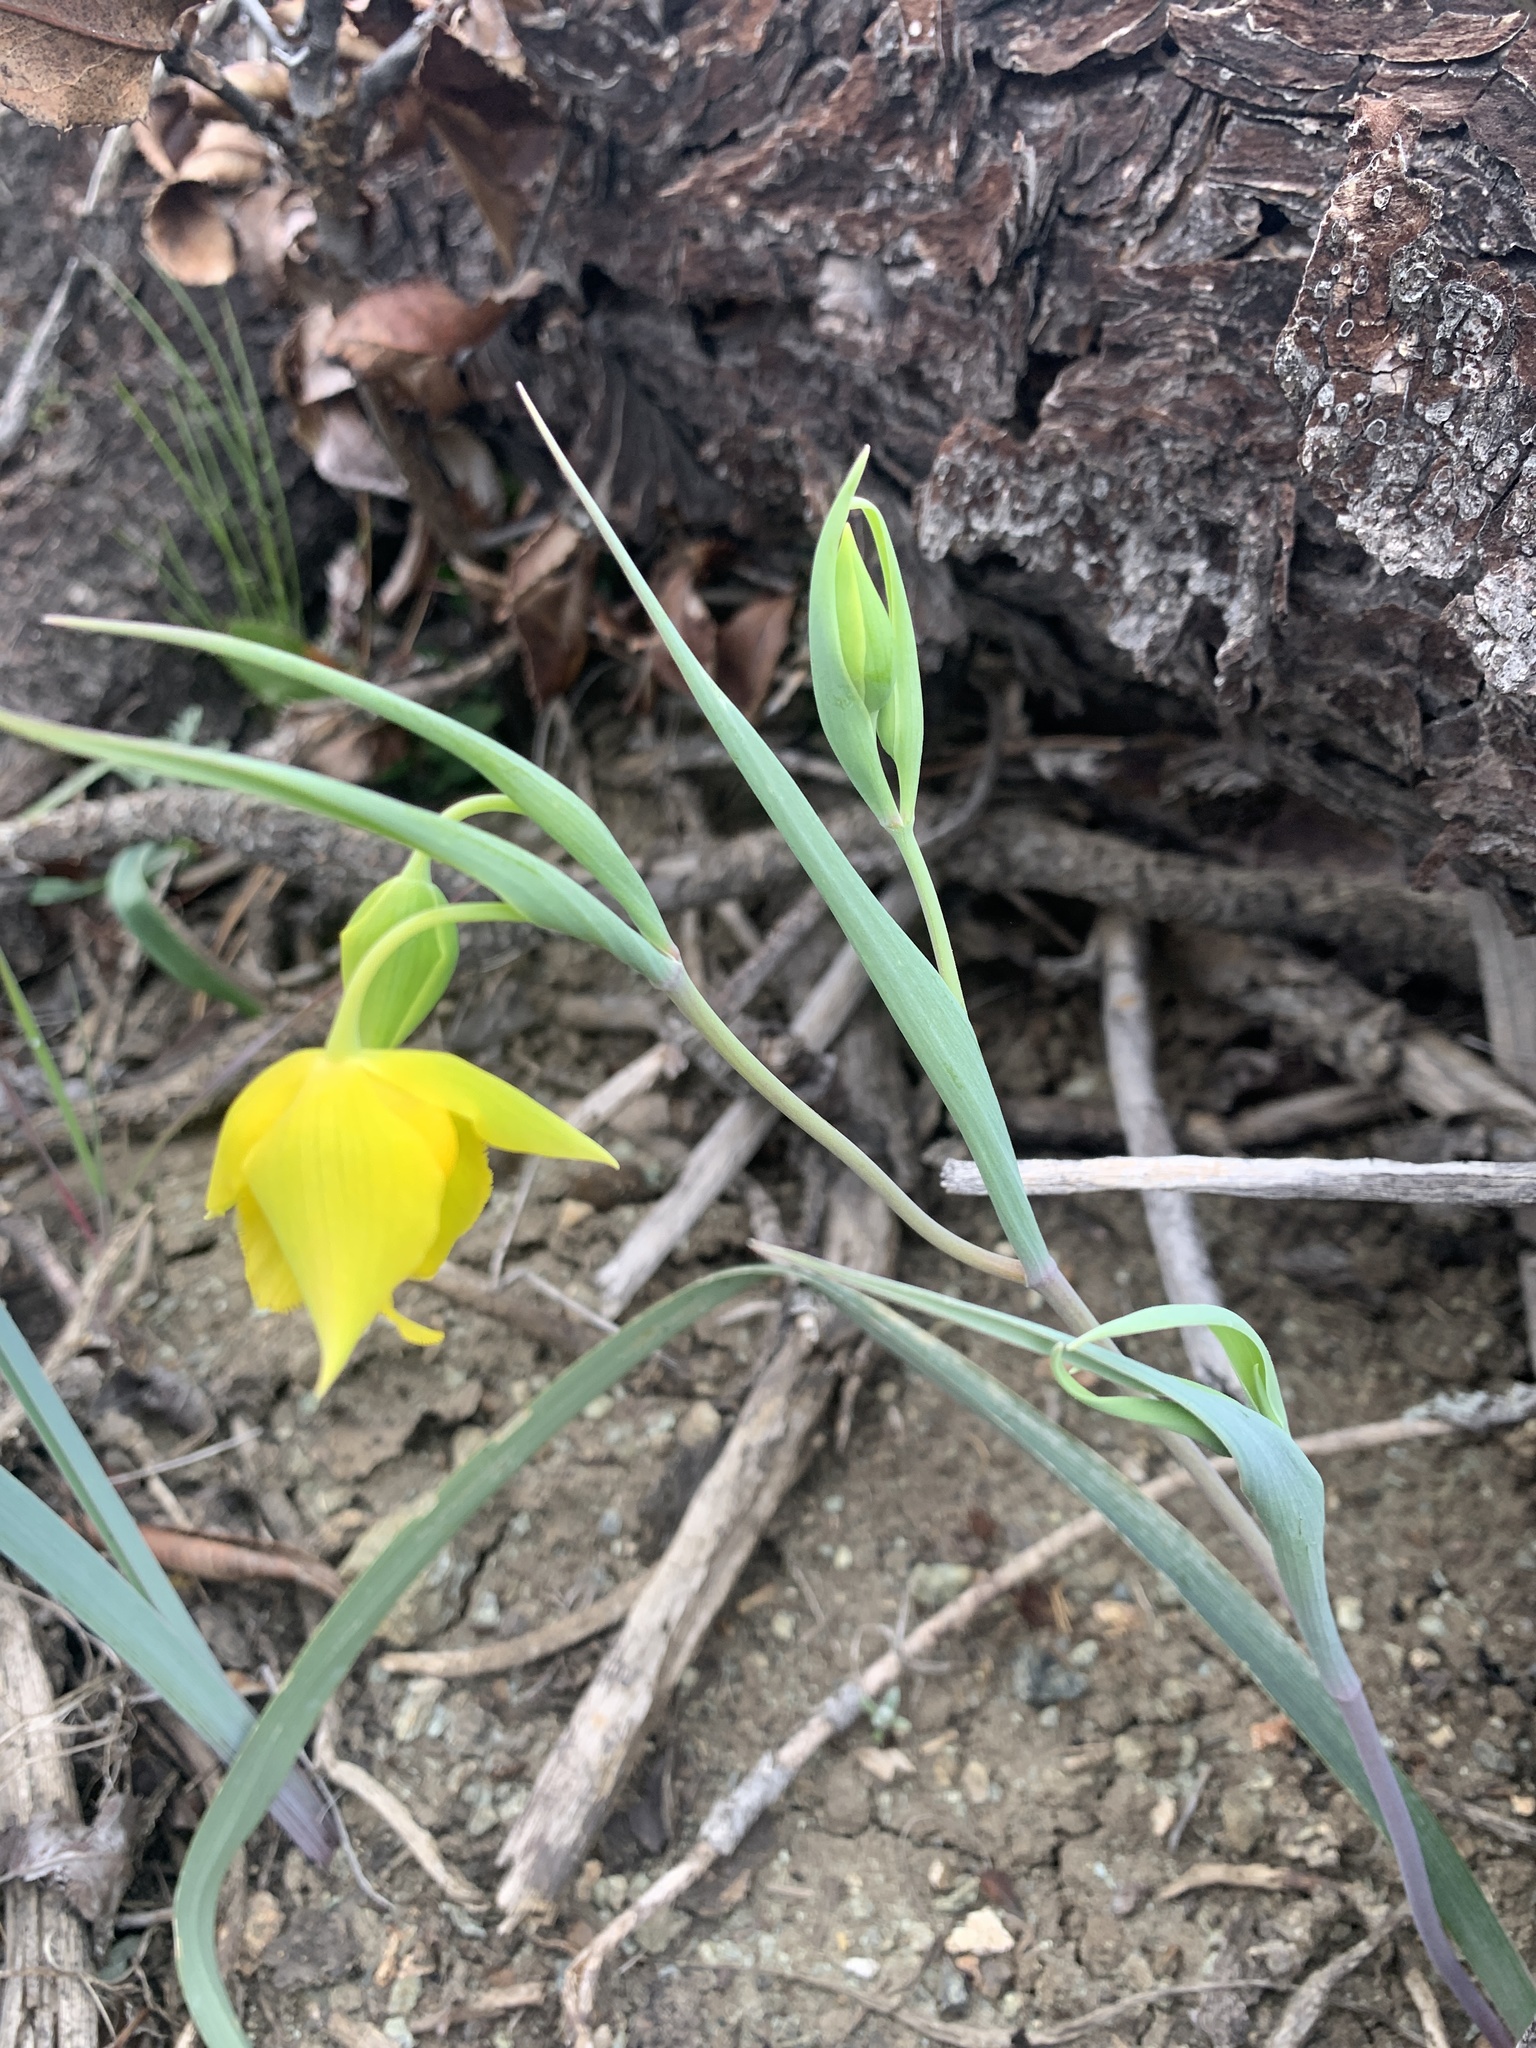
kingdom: Plantae
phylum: Tracheophyta
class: Liliopsida
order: Liliales
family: Liliaceae
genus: Calochortus
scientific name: Calochortus amabilis
